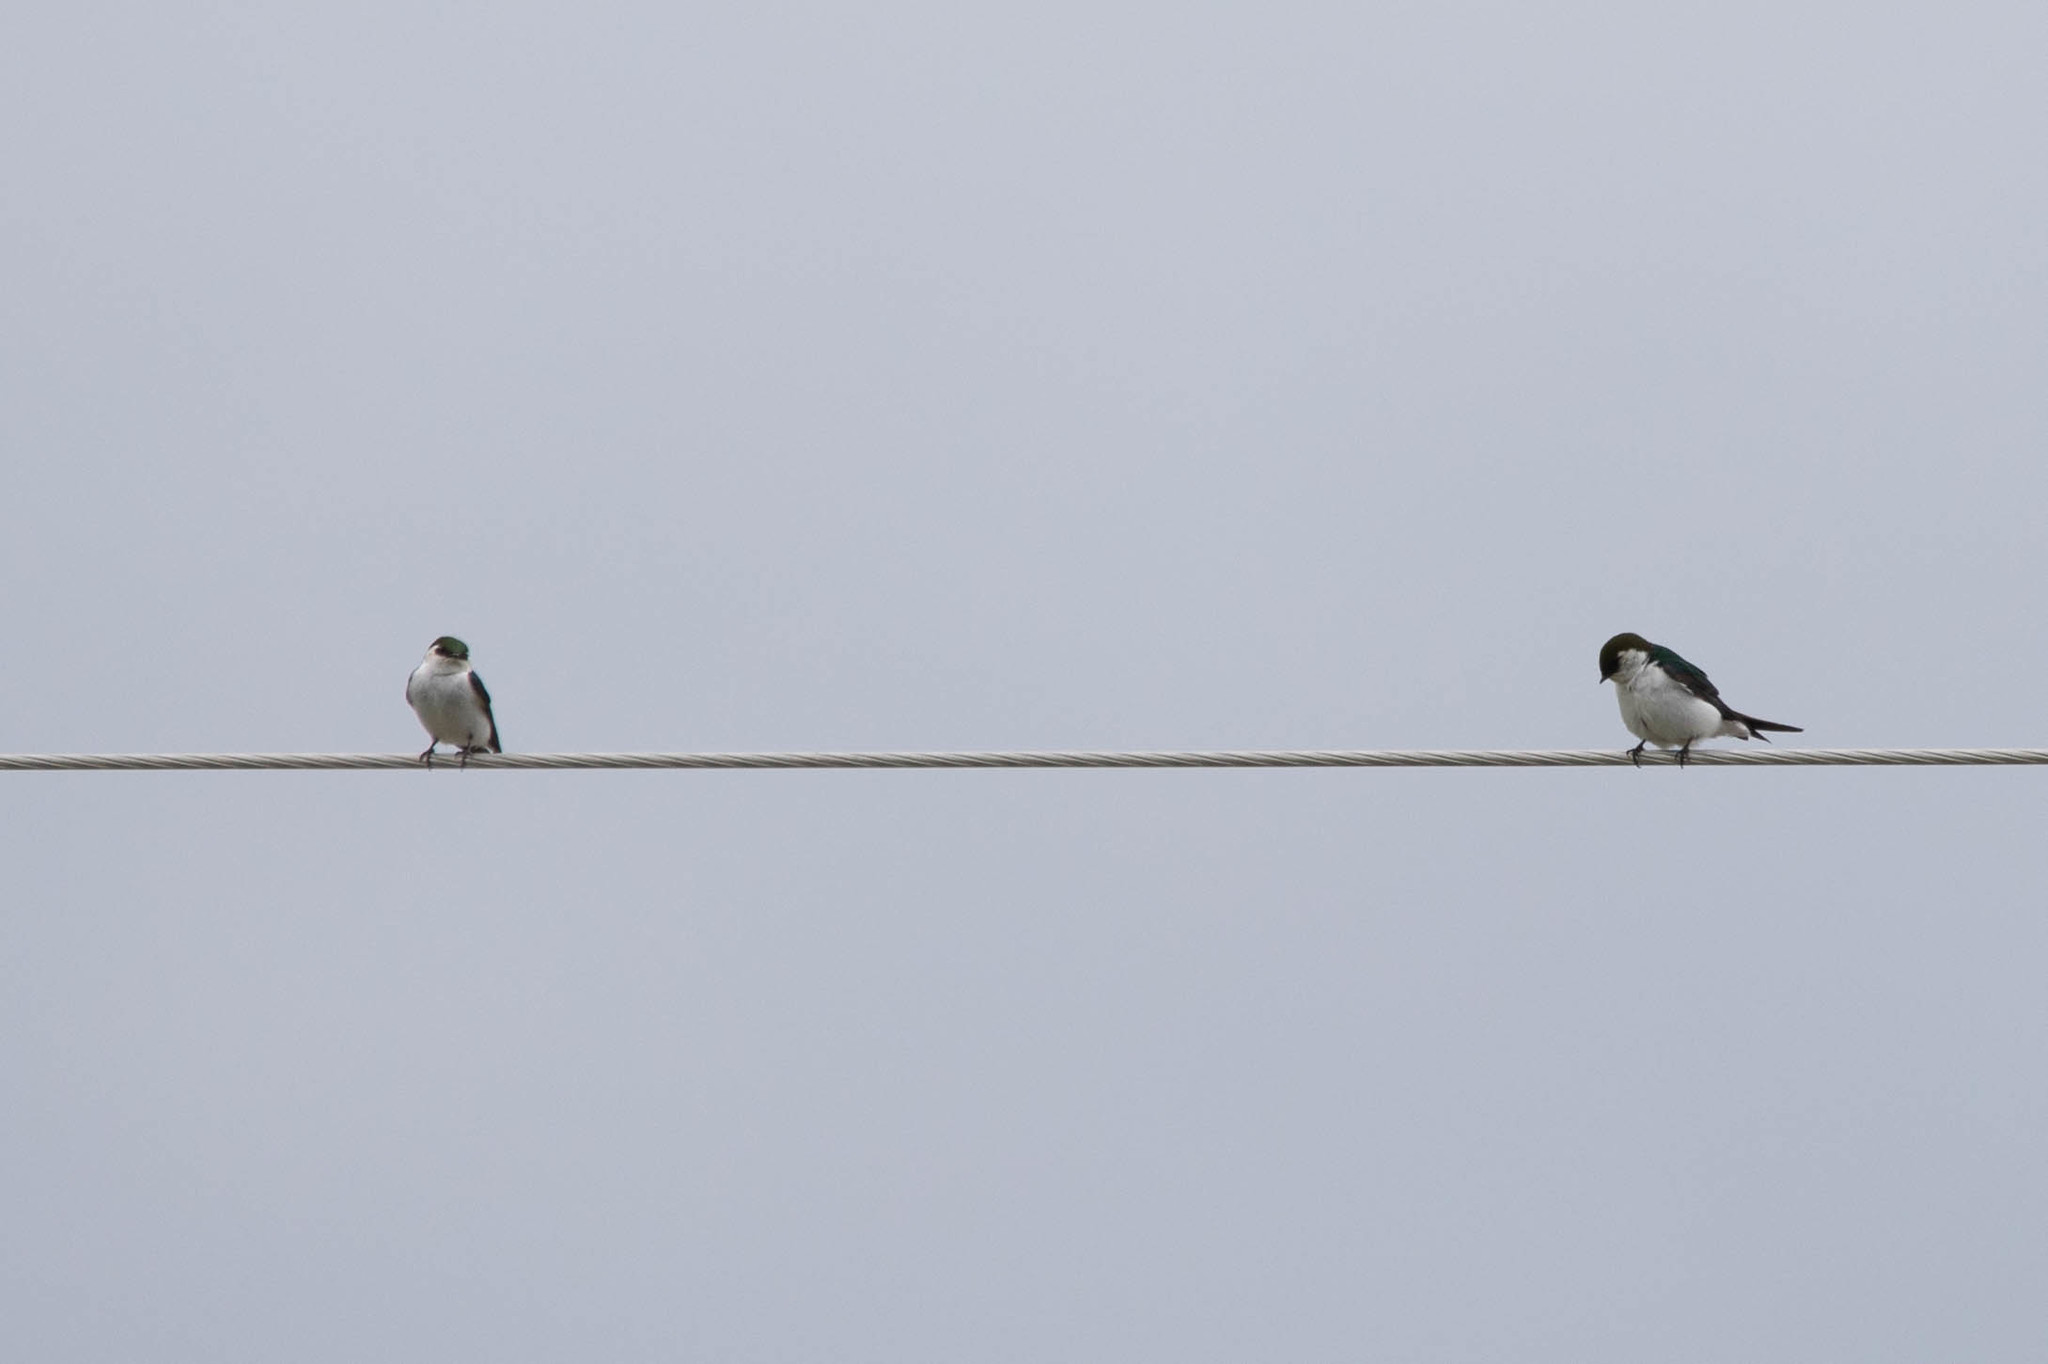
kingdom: Animalia
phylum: Chordata
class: Aves
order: Passeriformes
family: Hirundinidae
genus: Tachycineta
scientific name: Tachycineta thalassina
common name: Violet-green swallow
